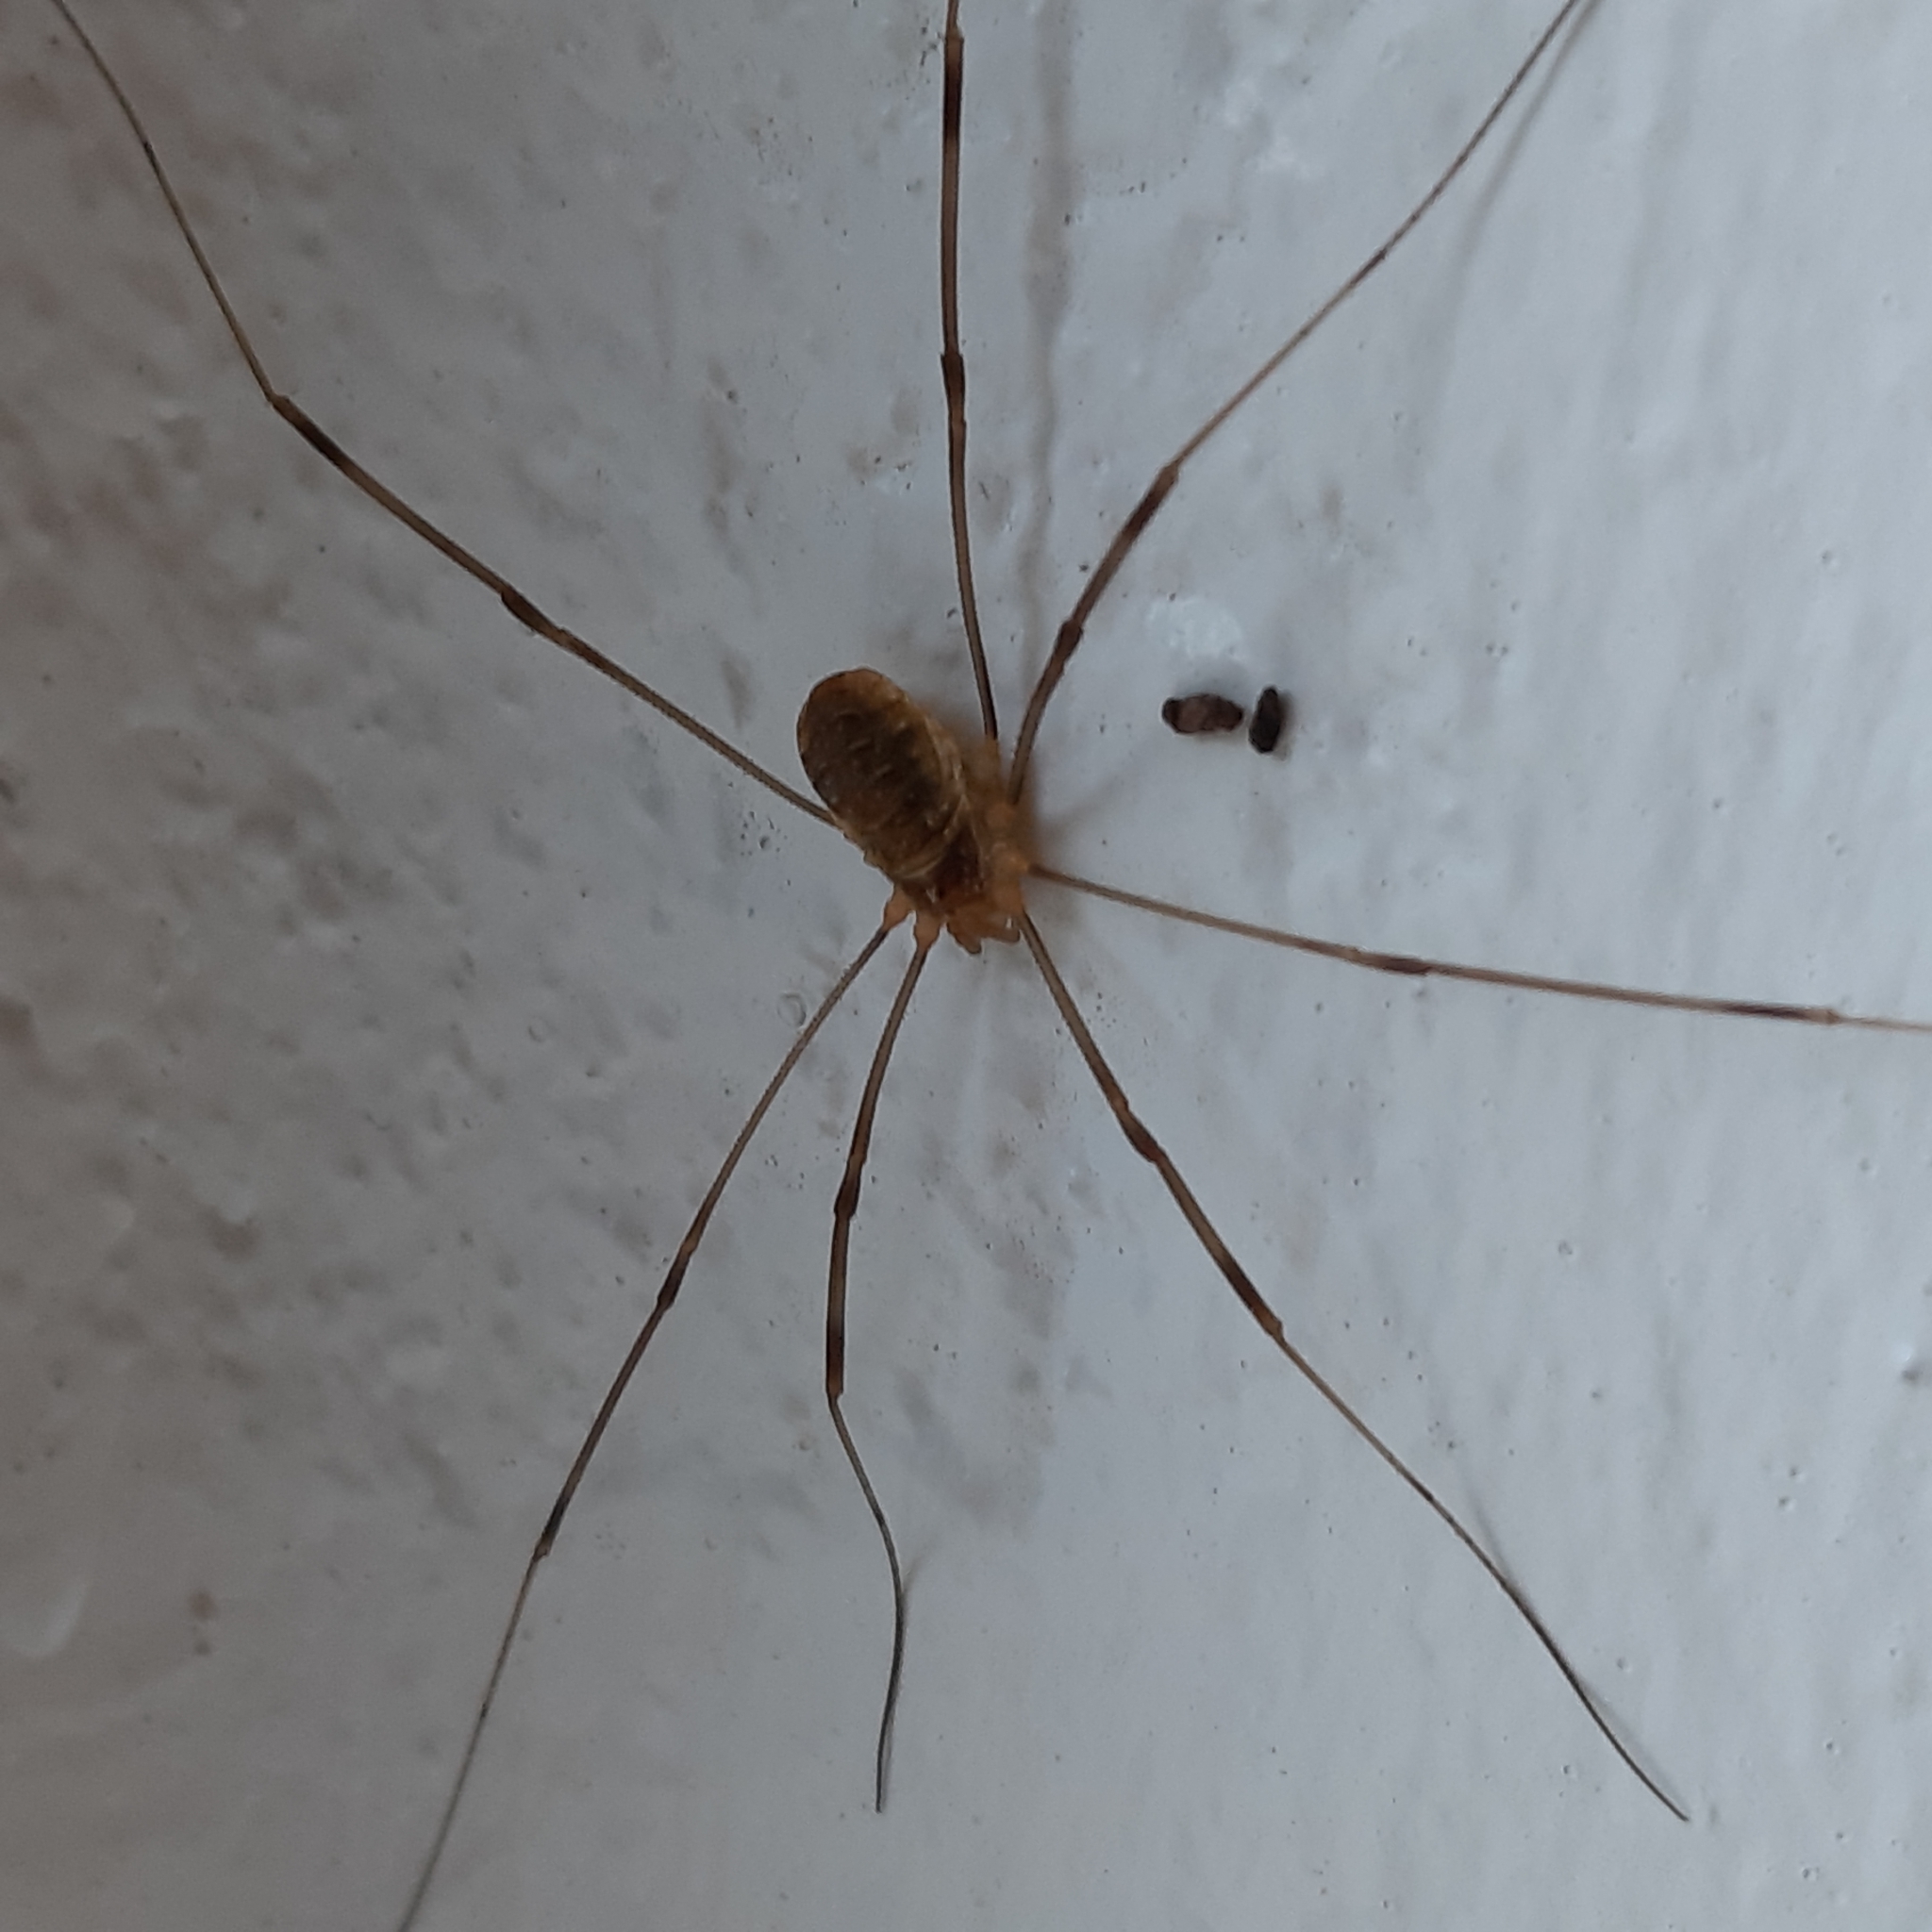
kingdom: Animalia
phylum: Arthropoda
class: Arachnida
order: Opiliones
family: Phalangiidae
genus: Opilio
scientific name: Opilio canestrinii
